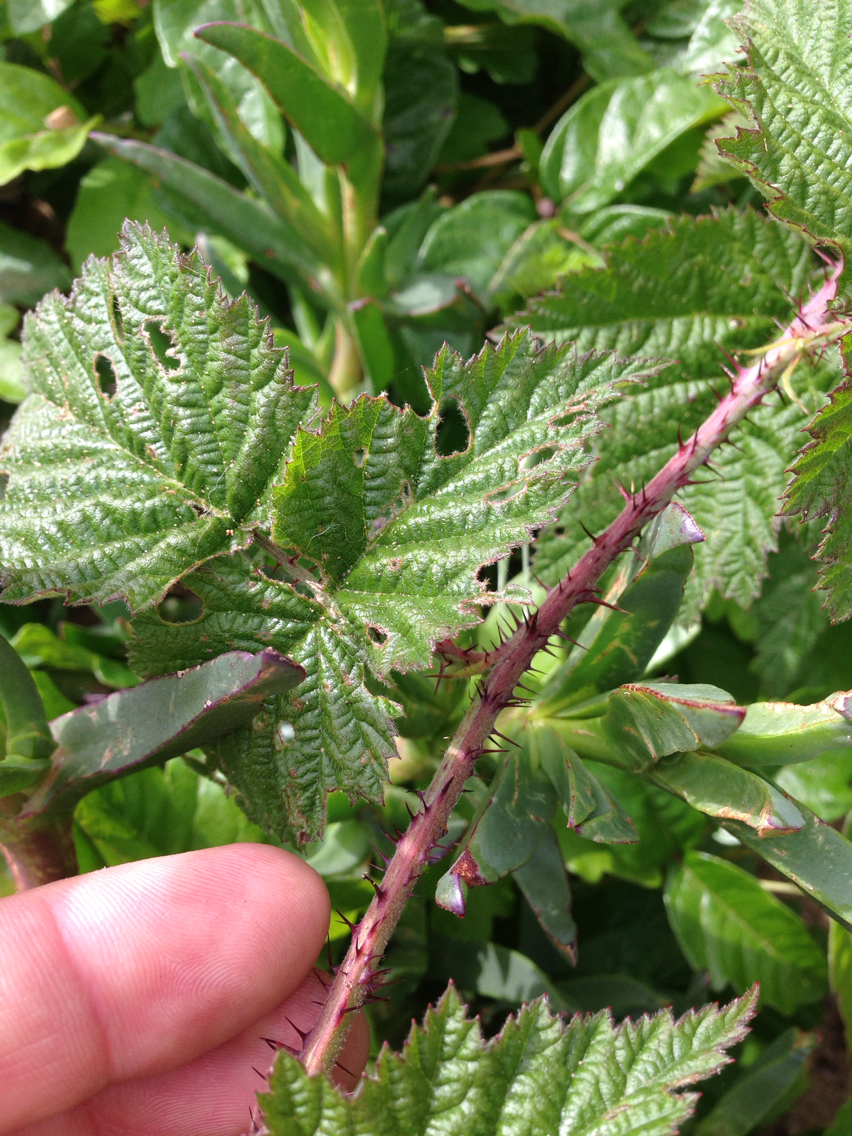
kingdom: Plantae
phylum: Tracheophyta
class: Magnoliopsida
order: Rosales
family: Rosaceae
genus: Rubus
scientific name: Rubus ursinus
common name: Pacific blackberry
